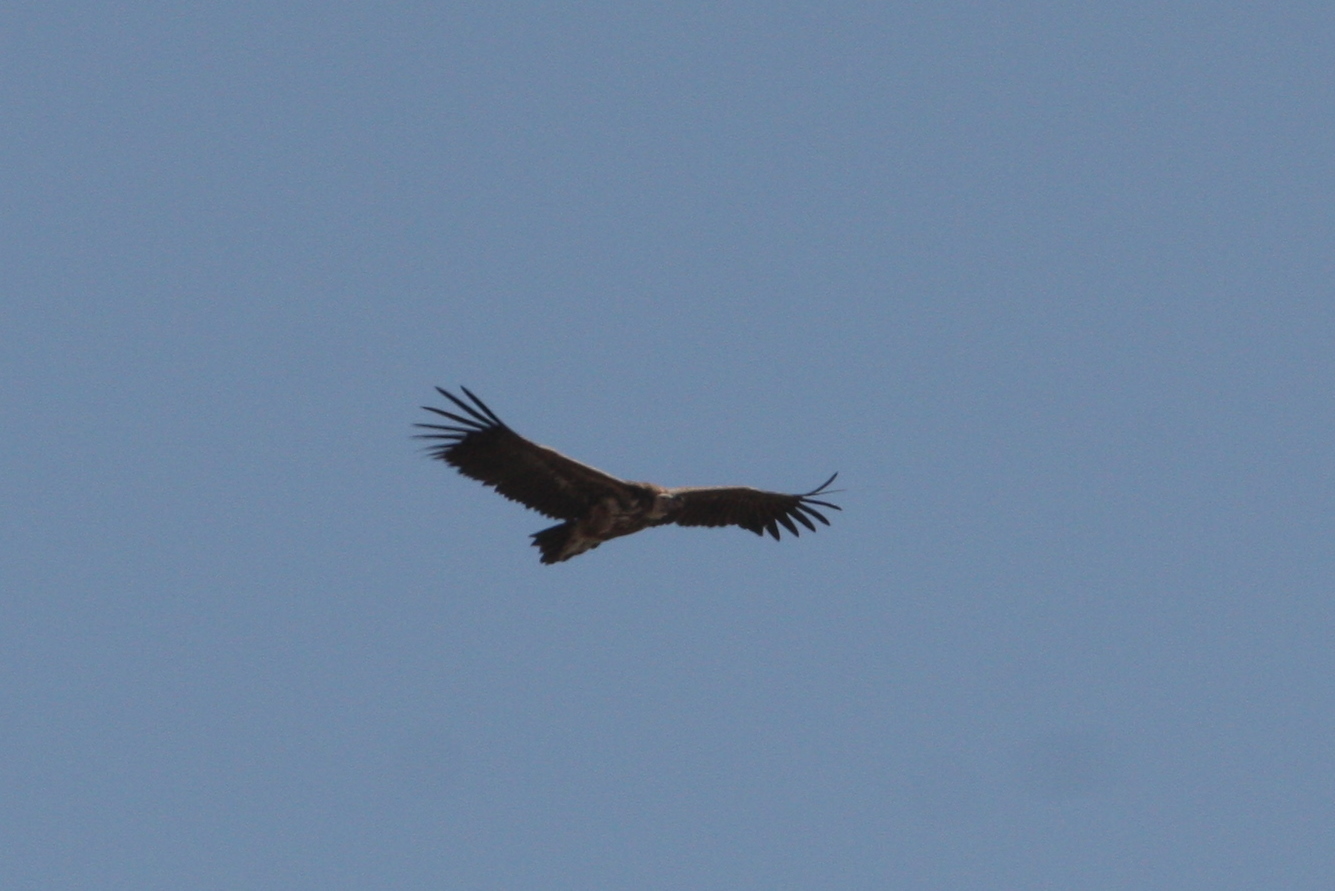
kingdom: Animalia
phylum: Chordata
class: Aves
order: Accipitriformes
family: Accipitridae
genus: Torgos
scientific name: Torgos tracheliotos
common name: Lappet-faced vulture
